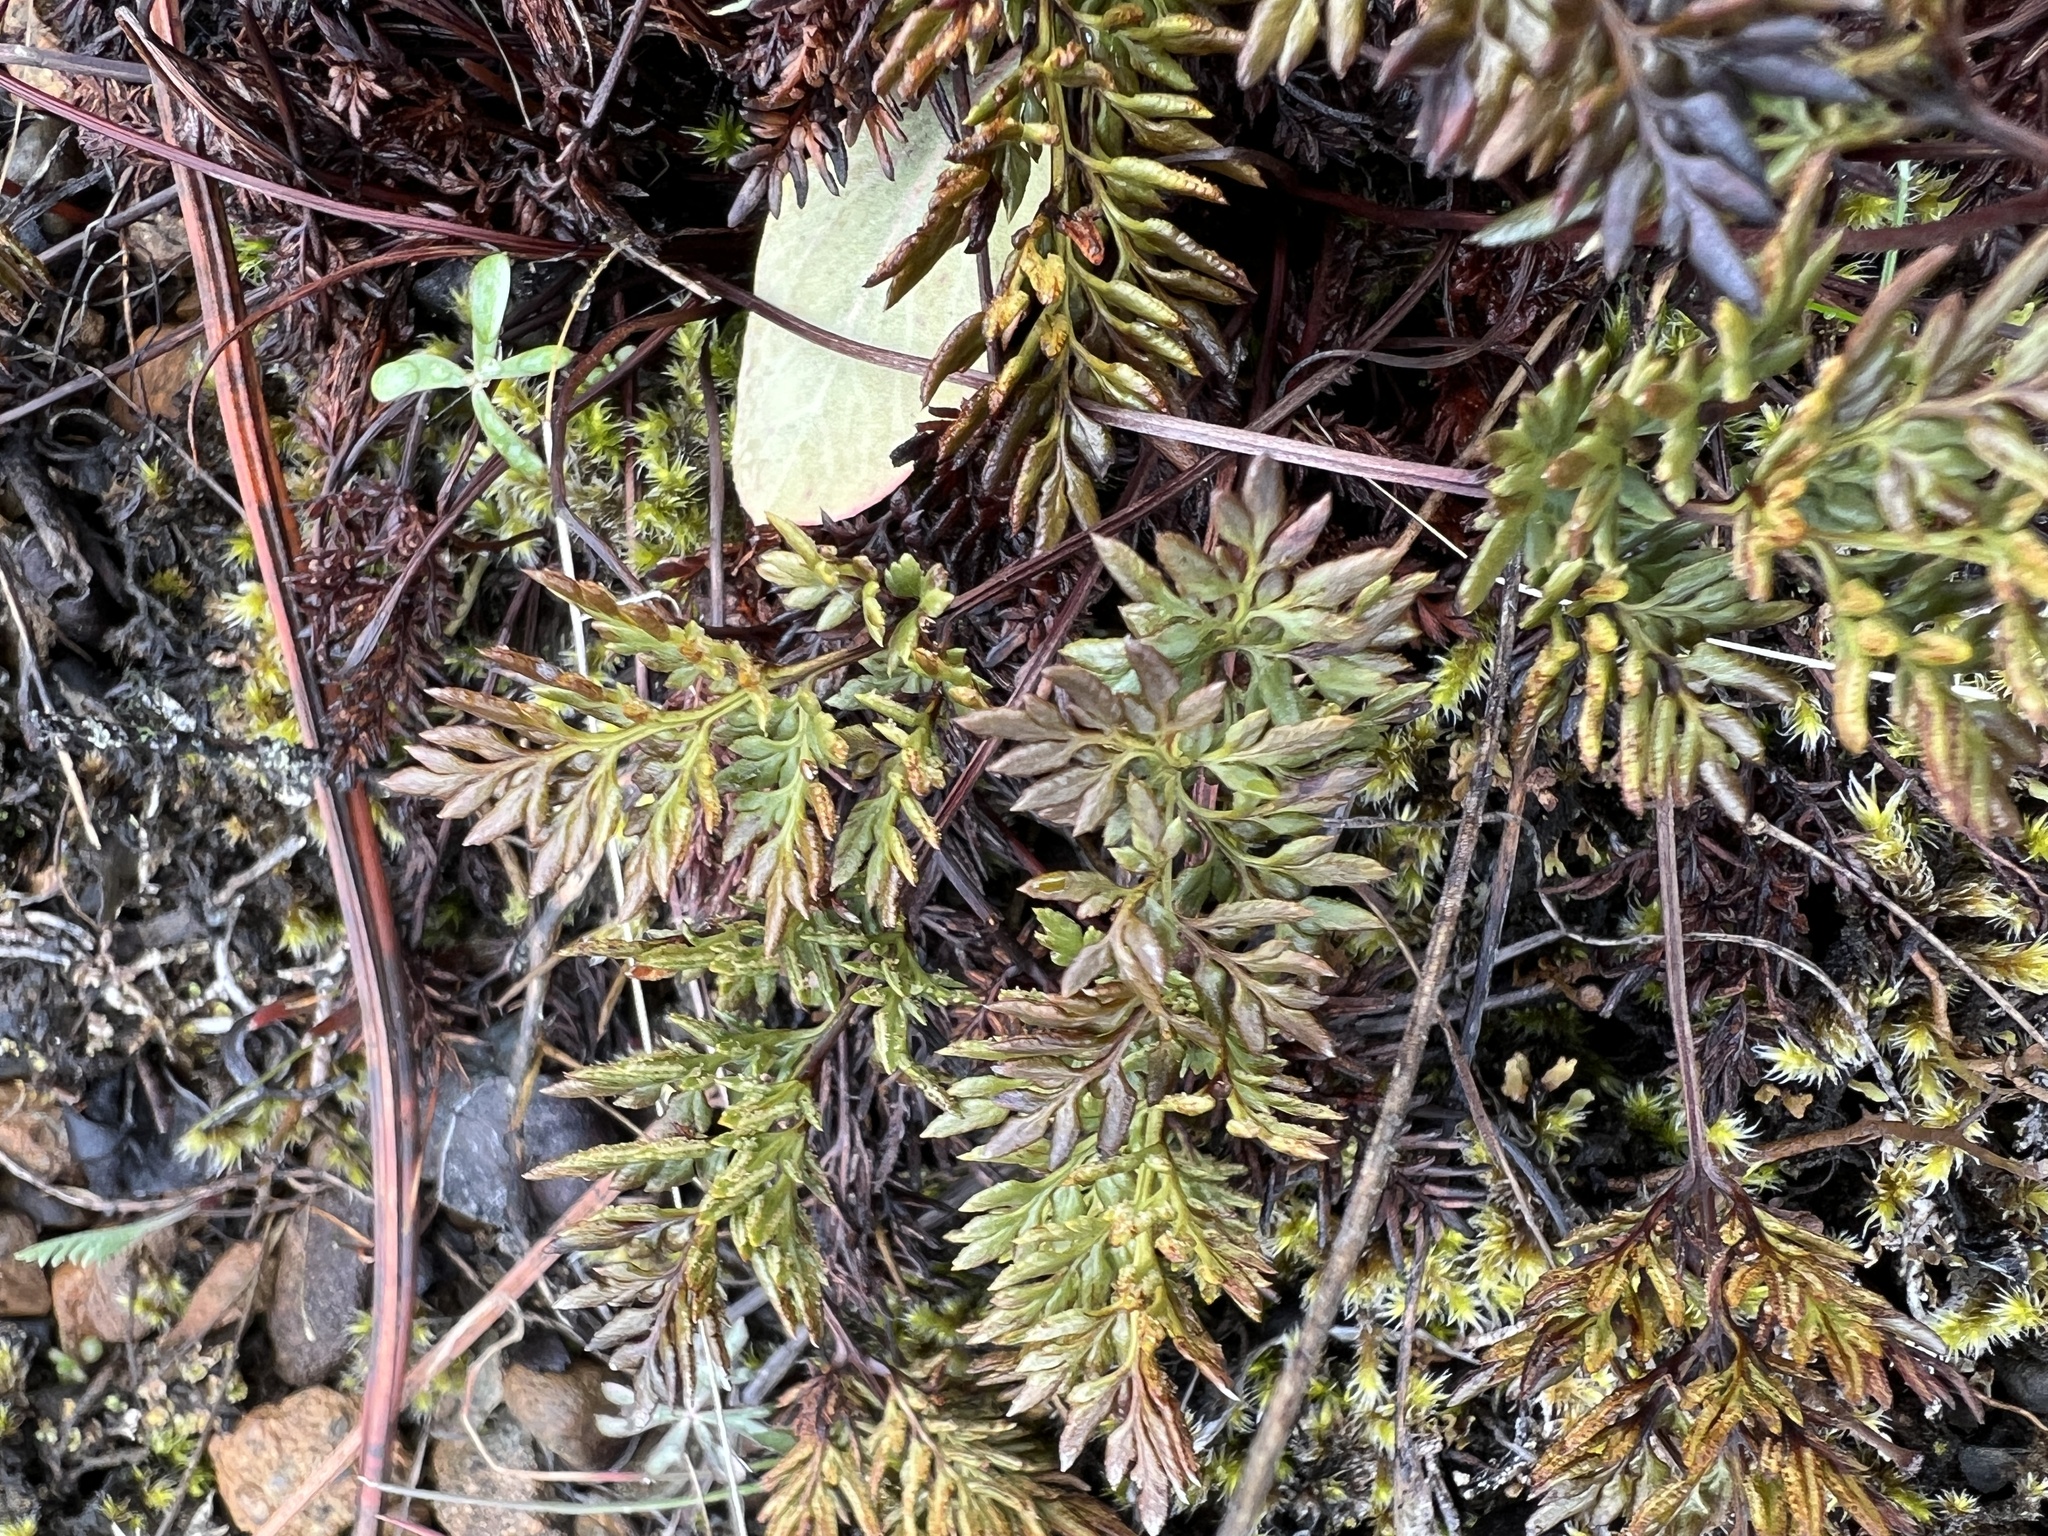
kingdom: Plantae
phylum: Tracheophyta
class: Polypodiopsida
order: Polypodiales
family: Pteridaceae
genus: Aspidotis
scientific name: Aspidotis densa
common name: Indian's dream
